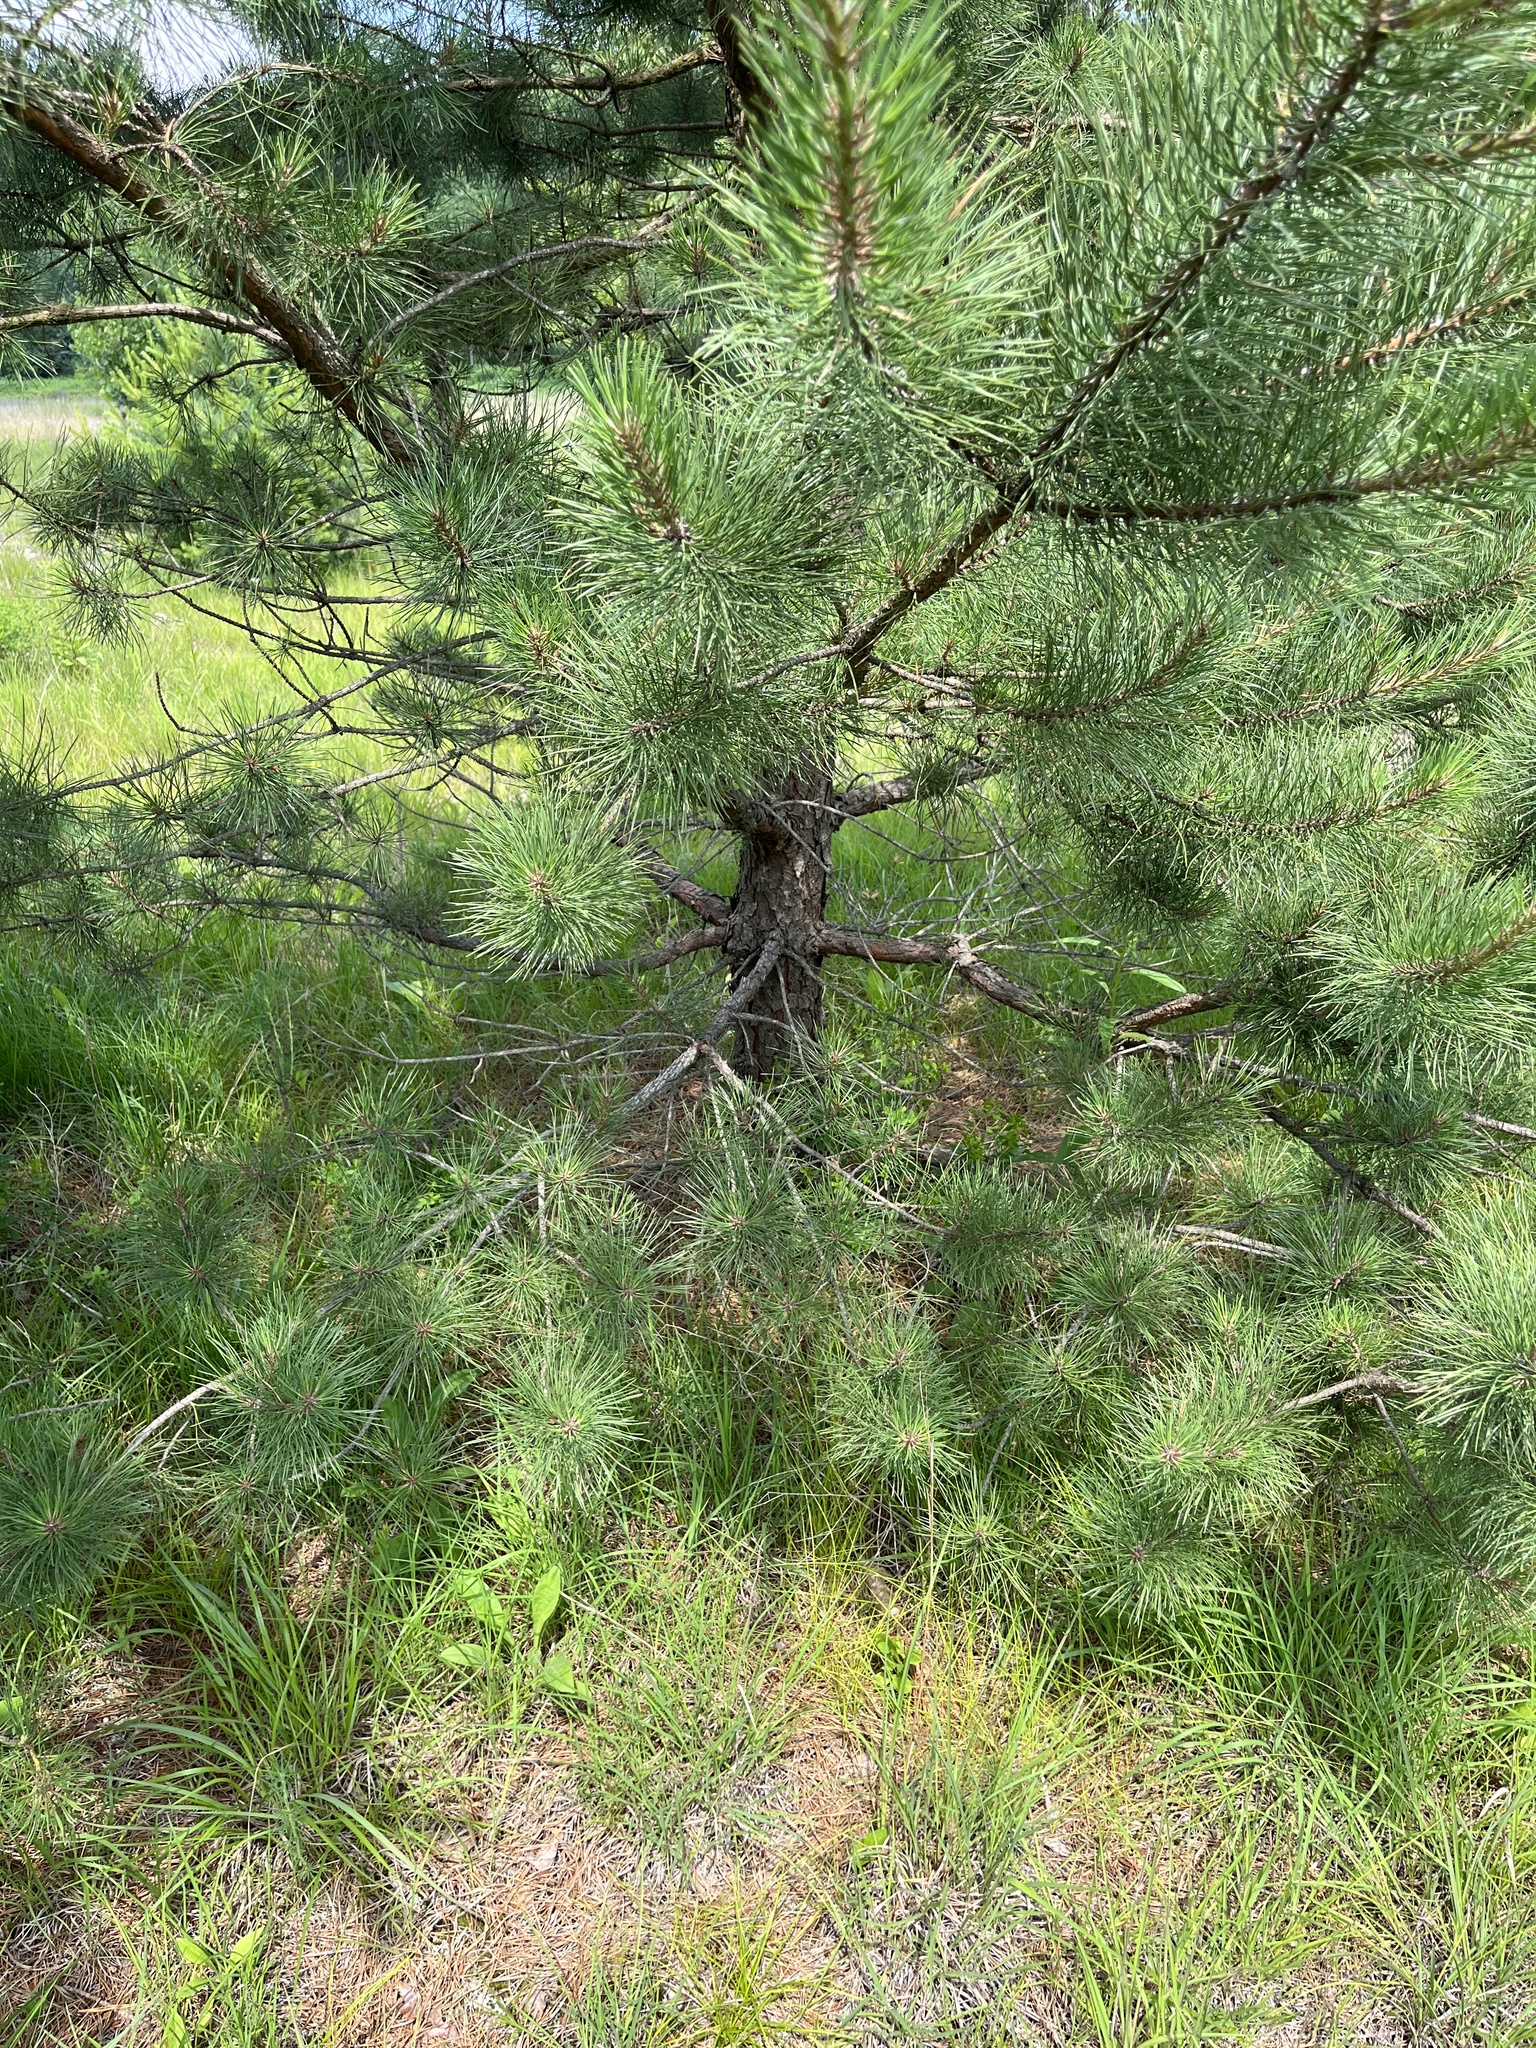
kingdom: Plantae
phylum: Tracheophyta
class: Pinopsida
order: Pinales
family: Pinaceae
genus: Pinus
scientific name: Pinus rigida
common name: Pitch pine
